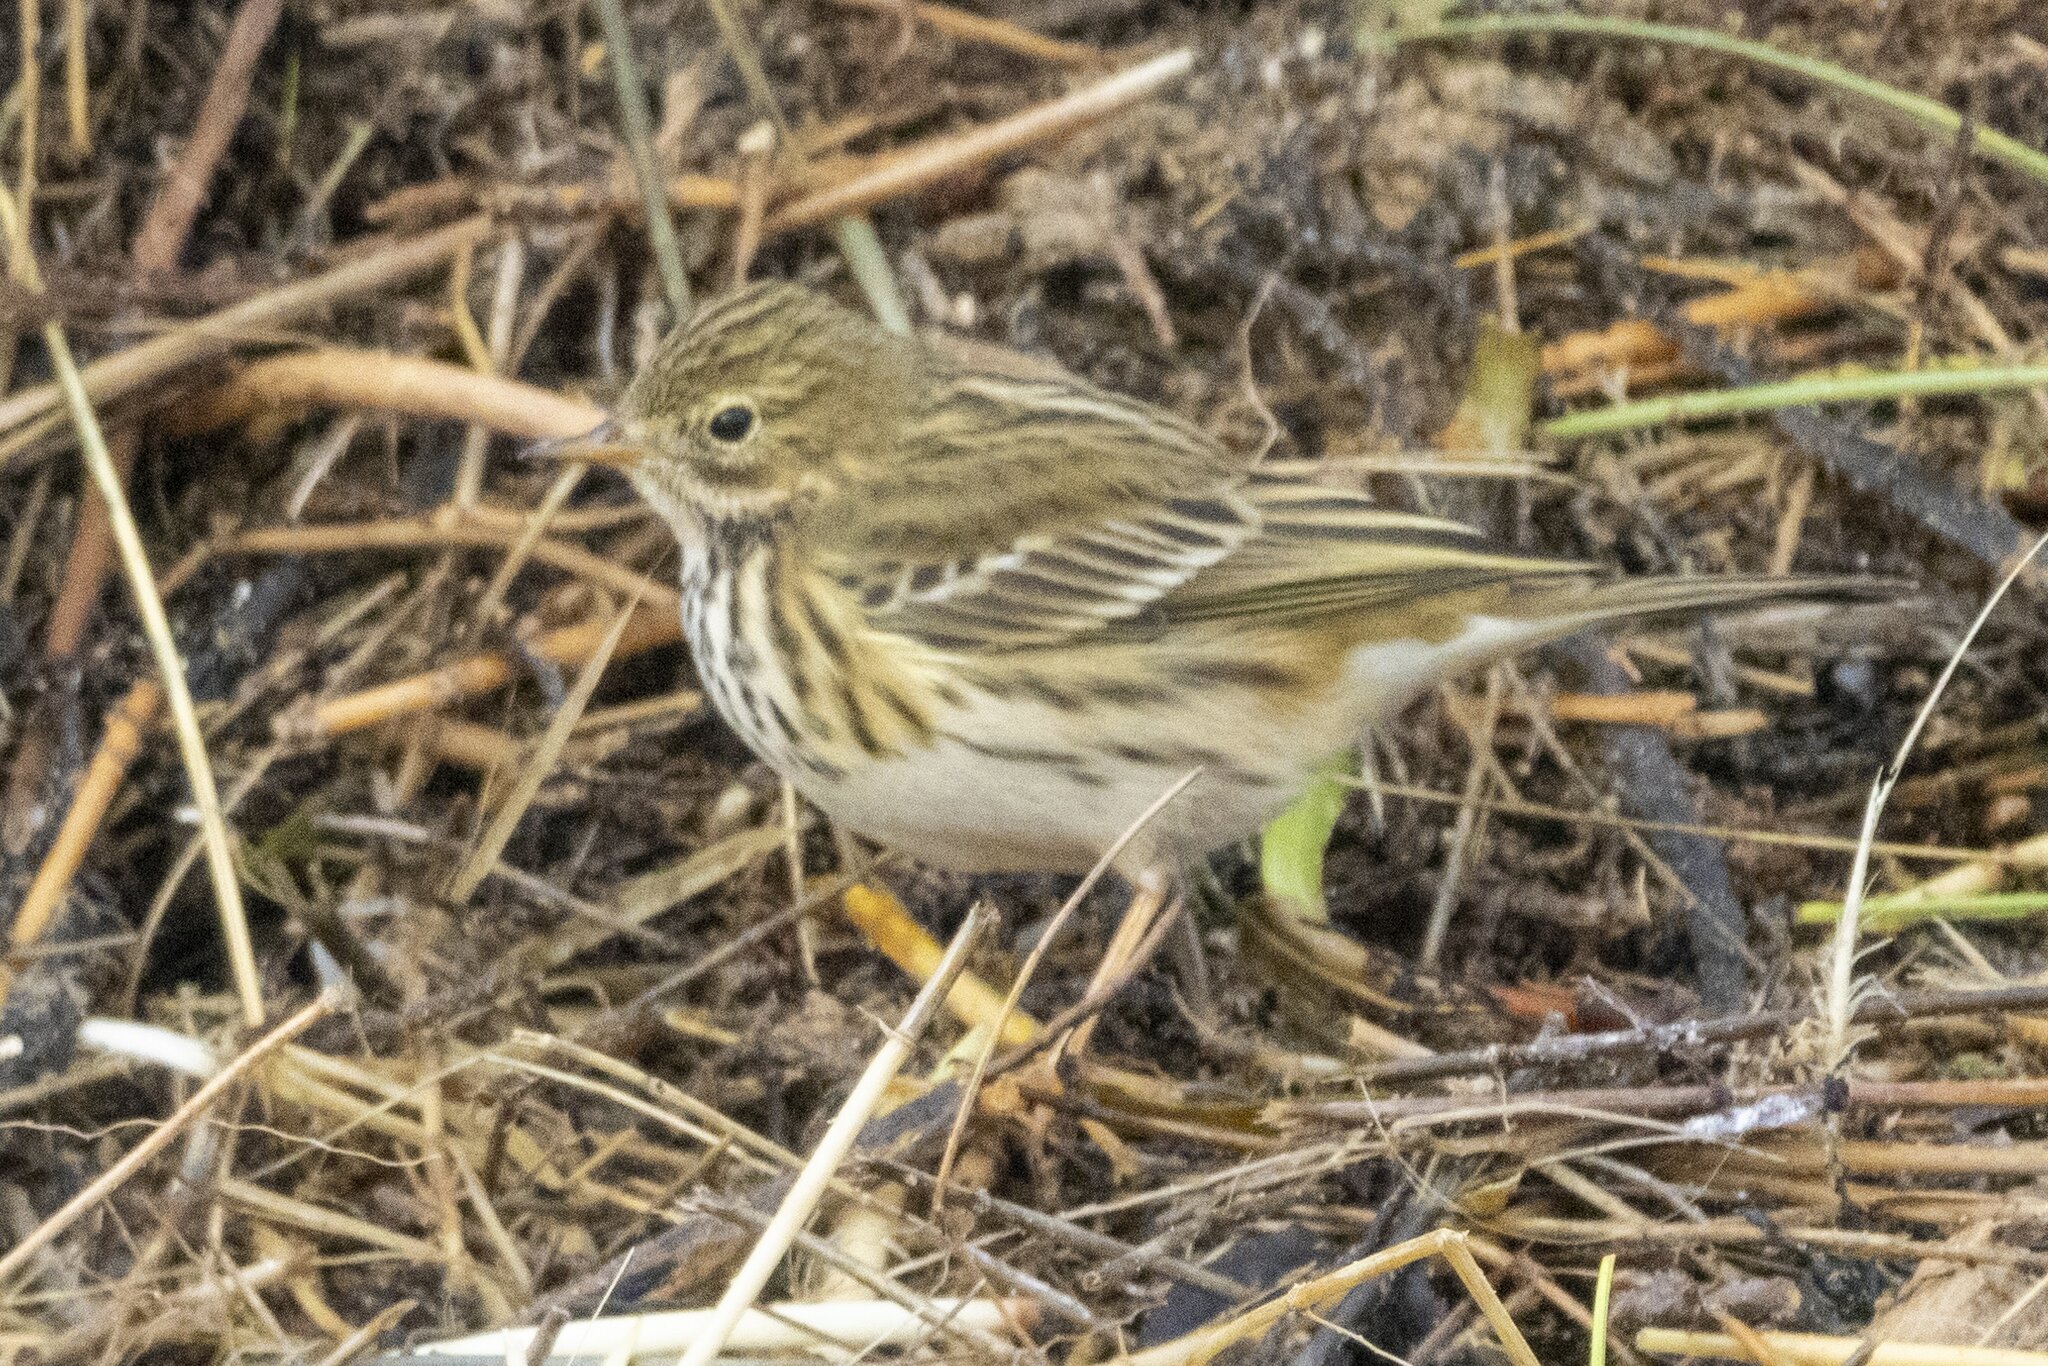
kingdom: Animalia
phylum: Chordata
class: Aves
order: Passeriformes
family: Motacillidae
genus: Anthus
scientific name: Anthus pratensis
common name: Meadow pipit
